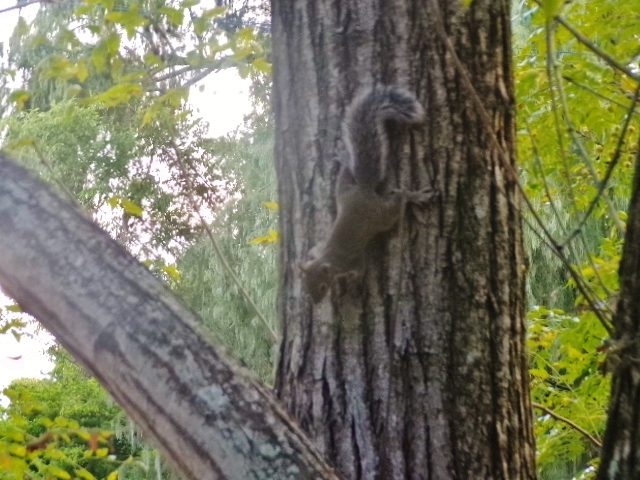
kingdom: Animalia
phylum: Chordata
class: Mammalia
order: Rodentia
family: Sciuridae
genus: Sciurus
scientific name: Sciurus alleni
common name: Allen's squirrel
